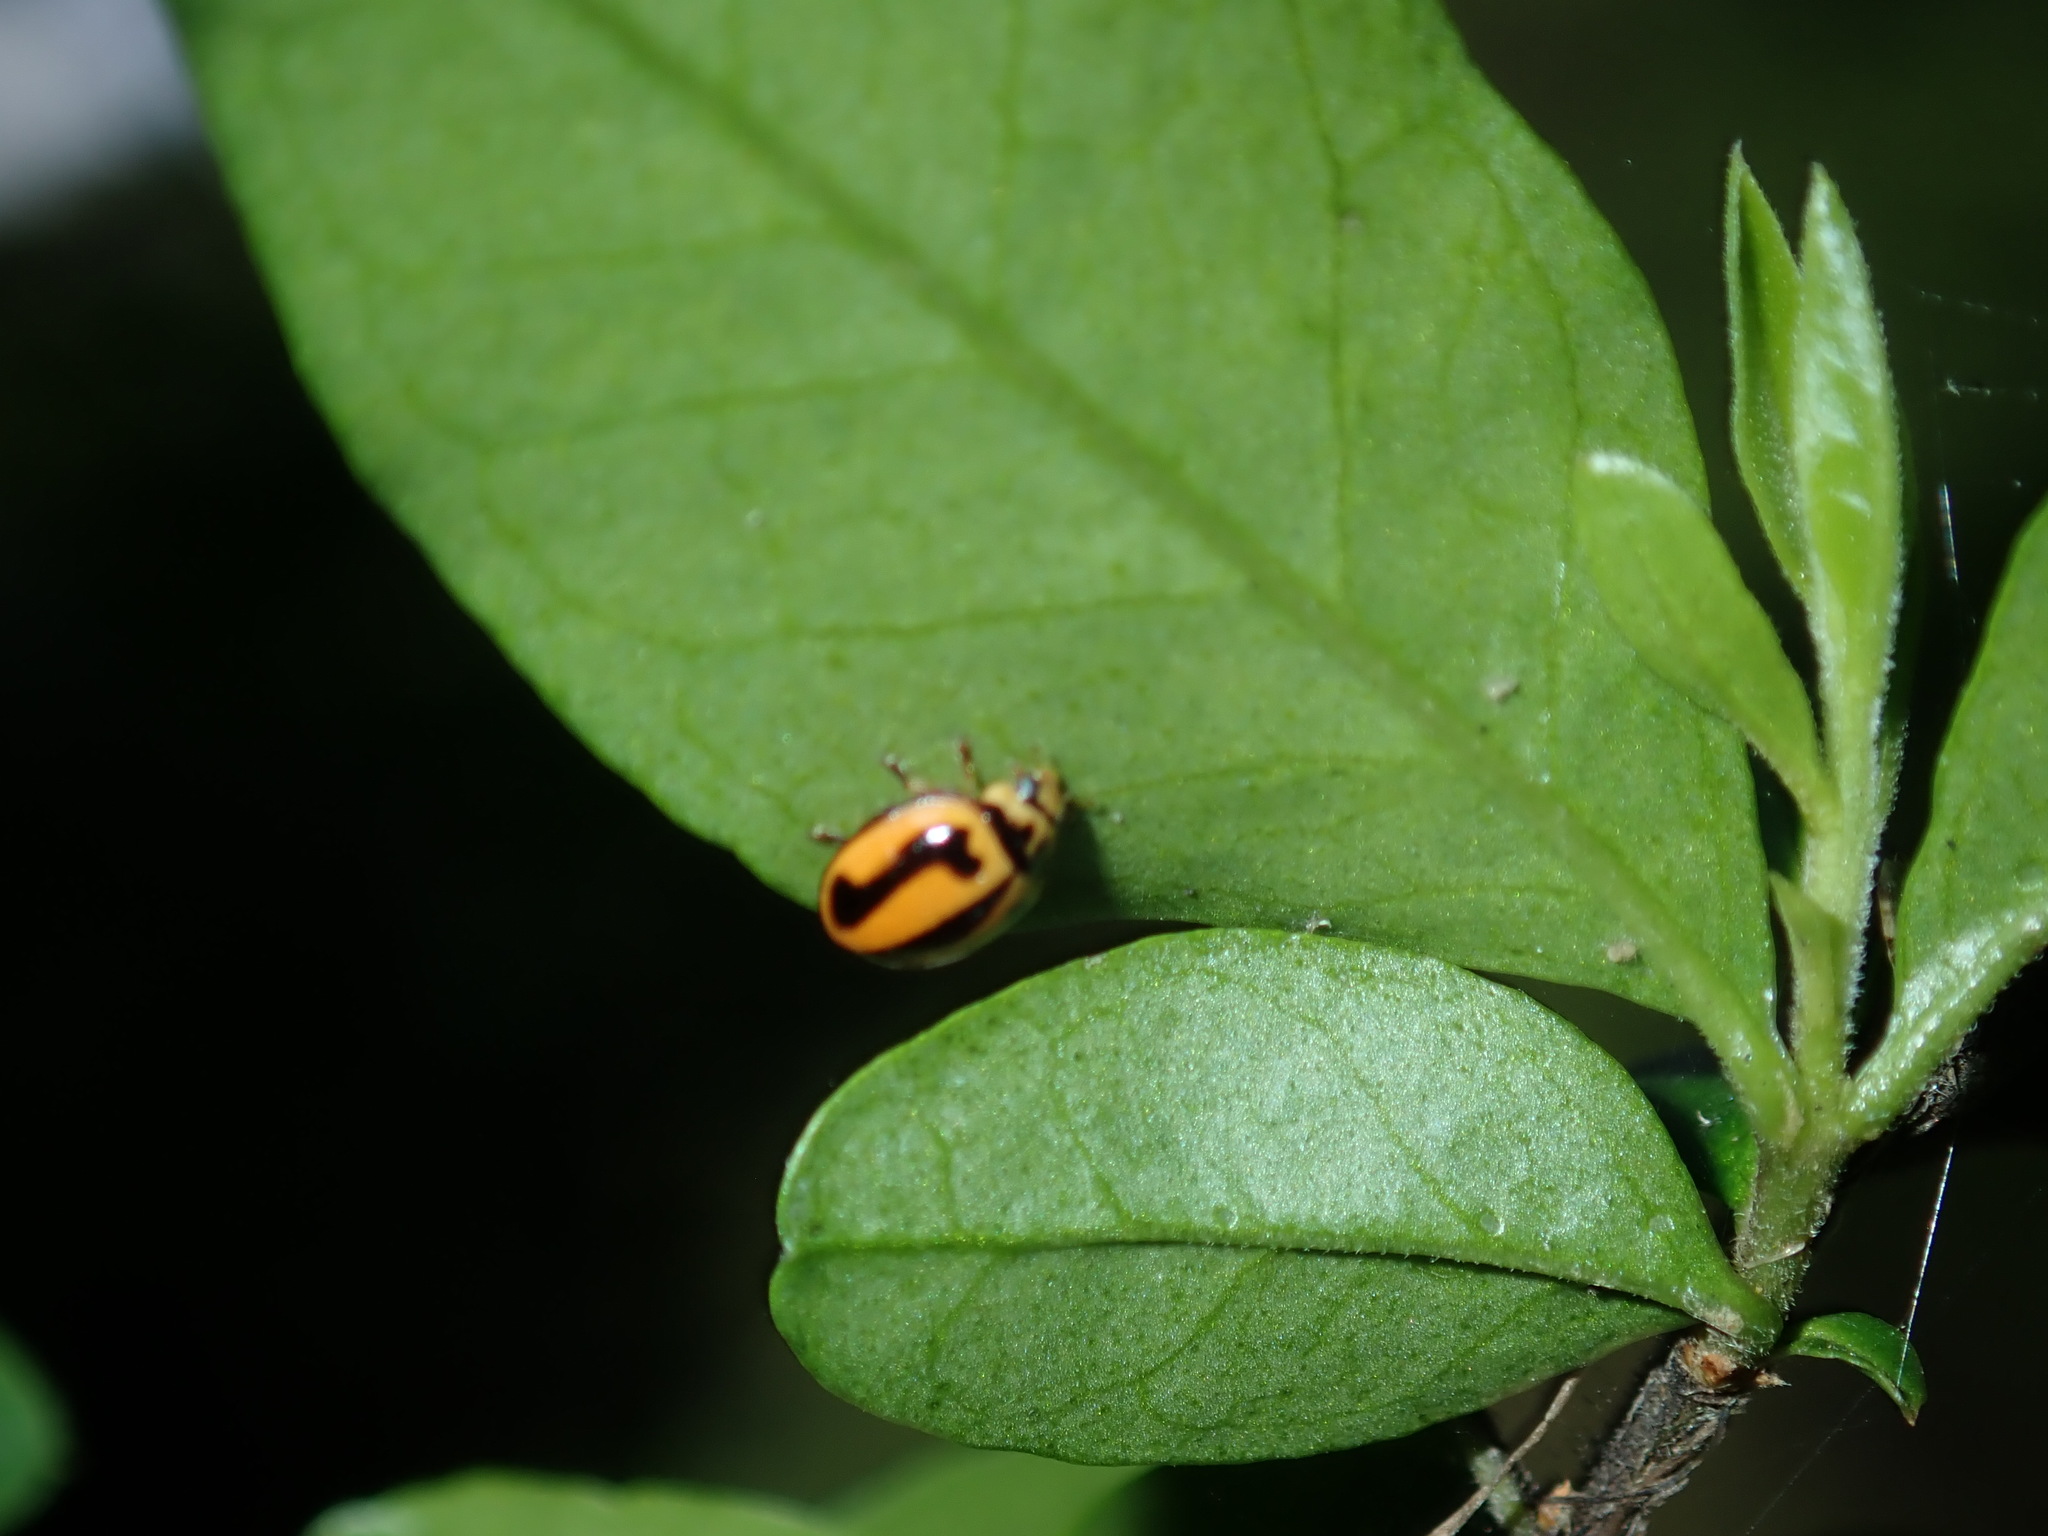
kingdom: Animalia
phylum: Arthropoda
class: Insecta
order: Coleoptera
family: Coccinellidae
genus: Micraspis
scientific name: Micraspis frenata
